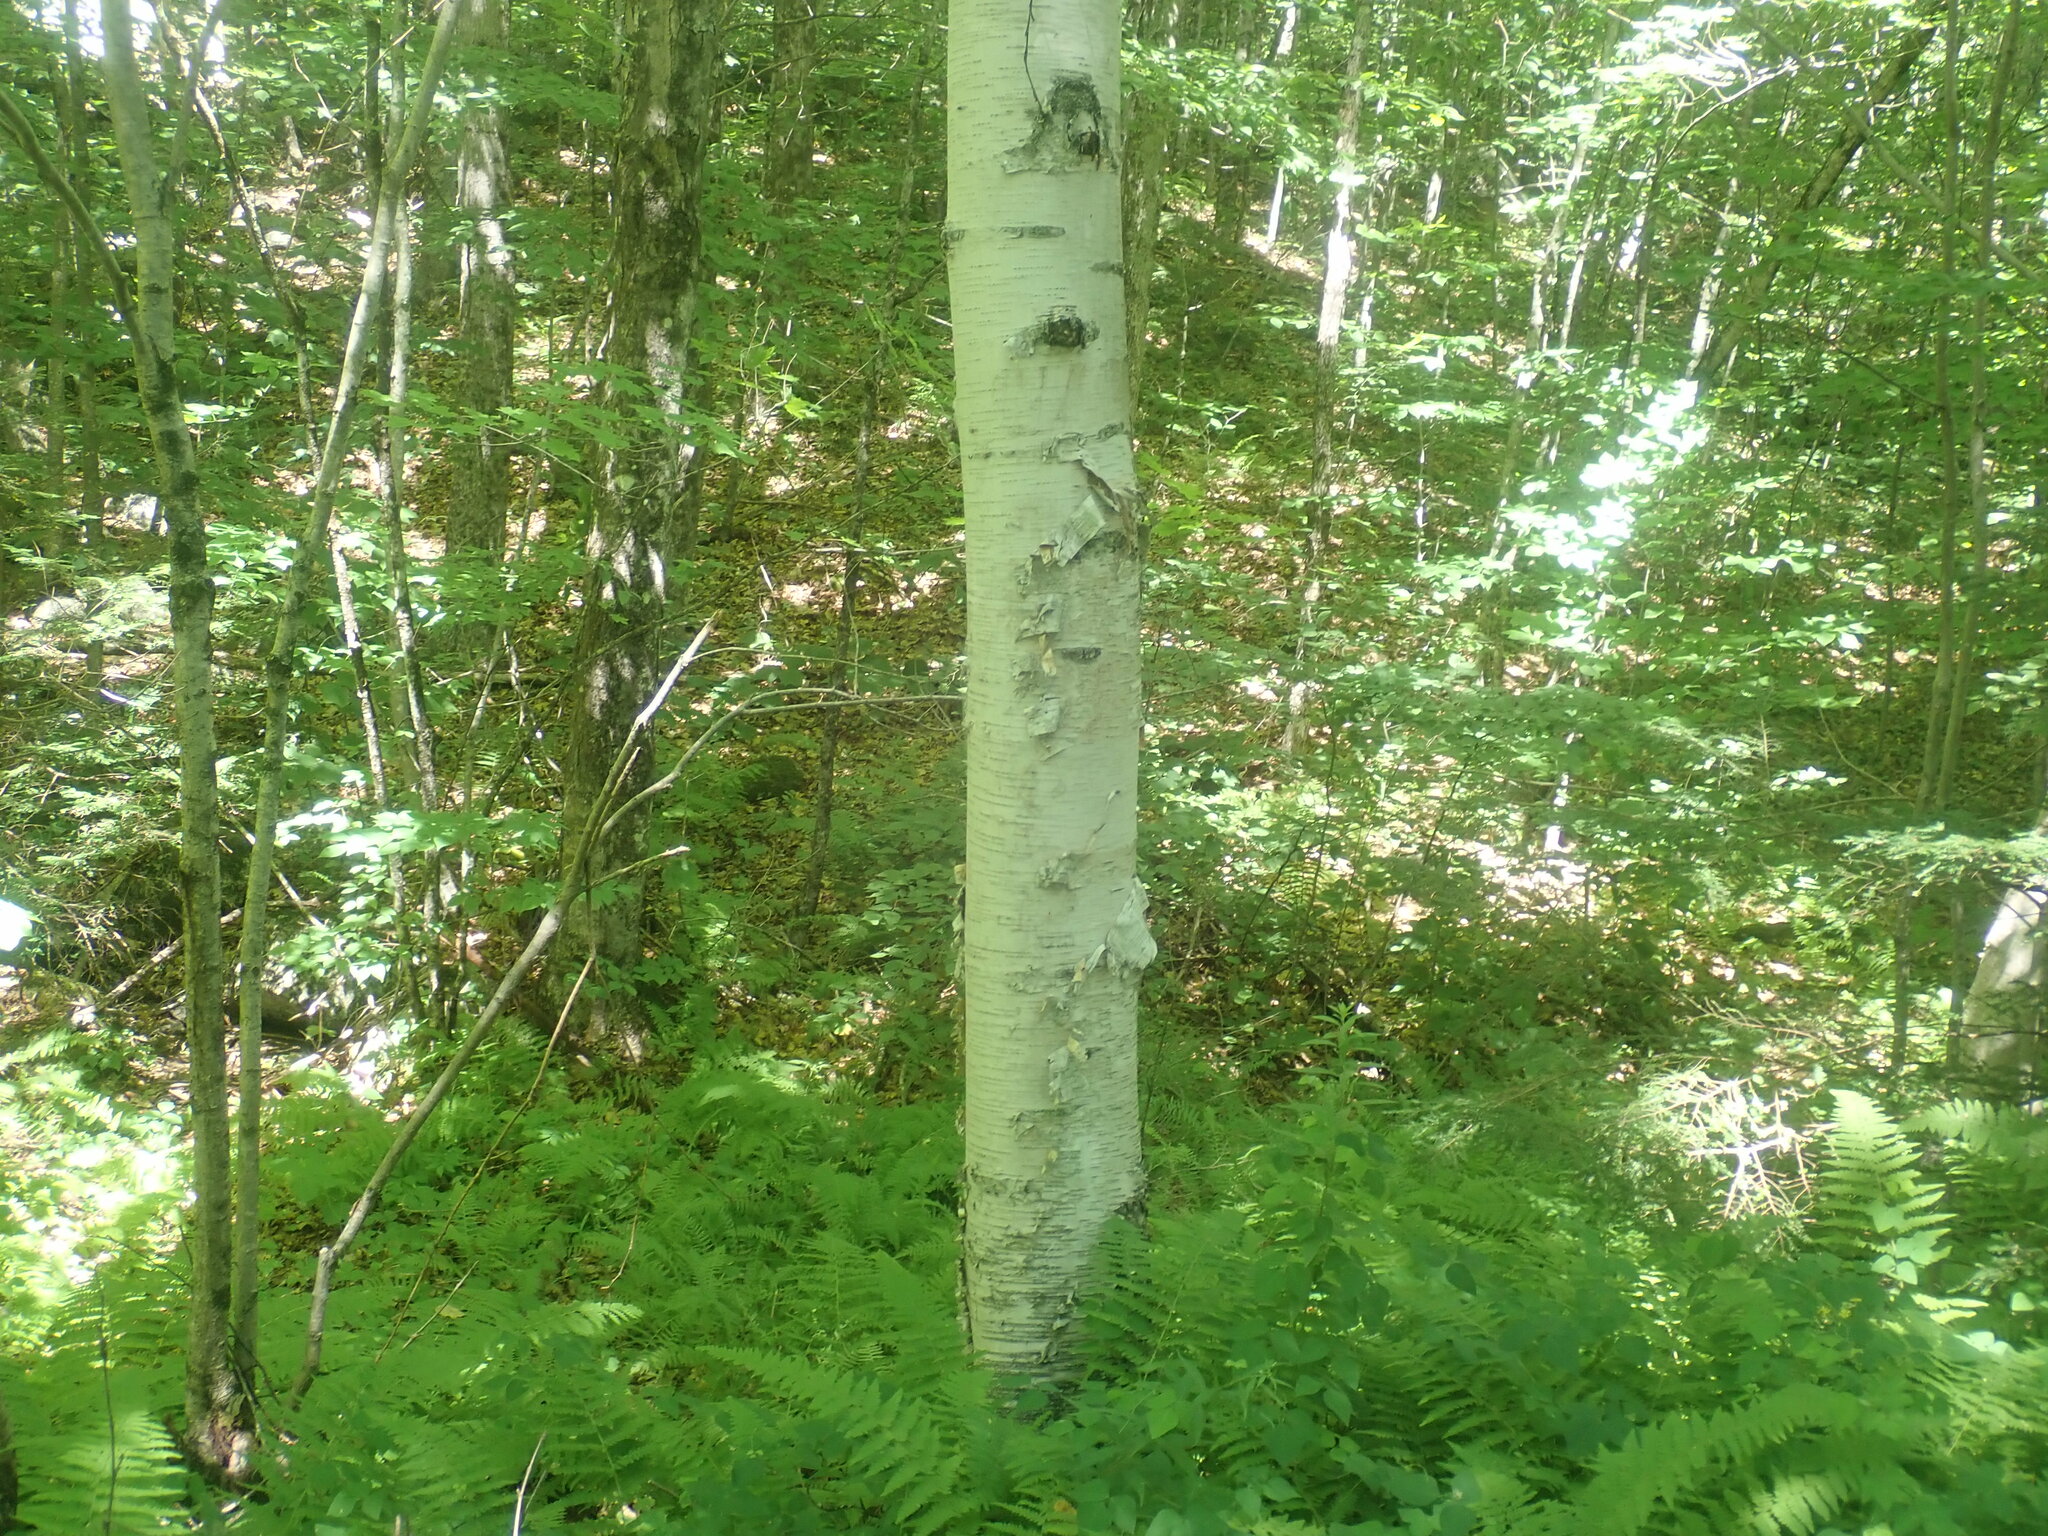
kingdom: Plantae
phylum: Tracheophyta
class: Magnoliopsida
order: Fagales
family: Betulaceae
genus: Betula
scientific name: Betula papyrifera
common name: Paper birch
